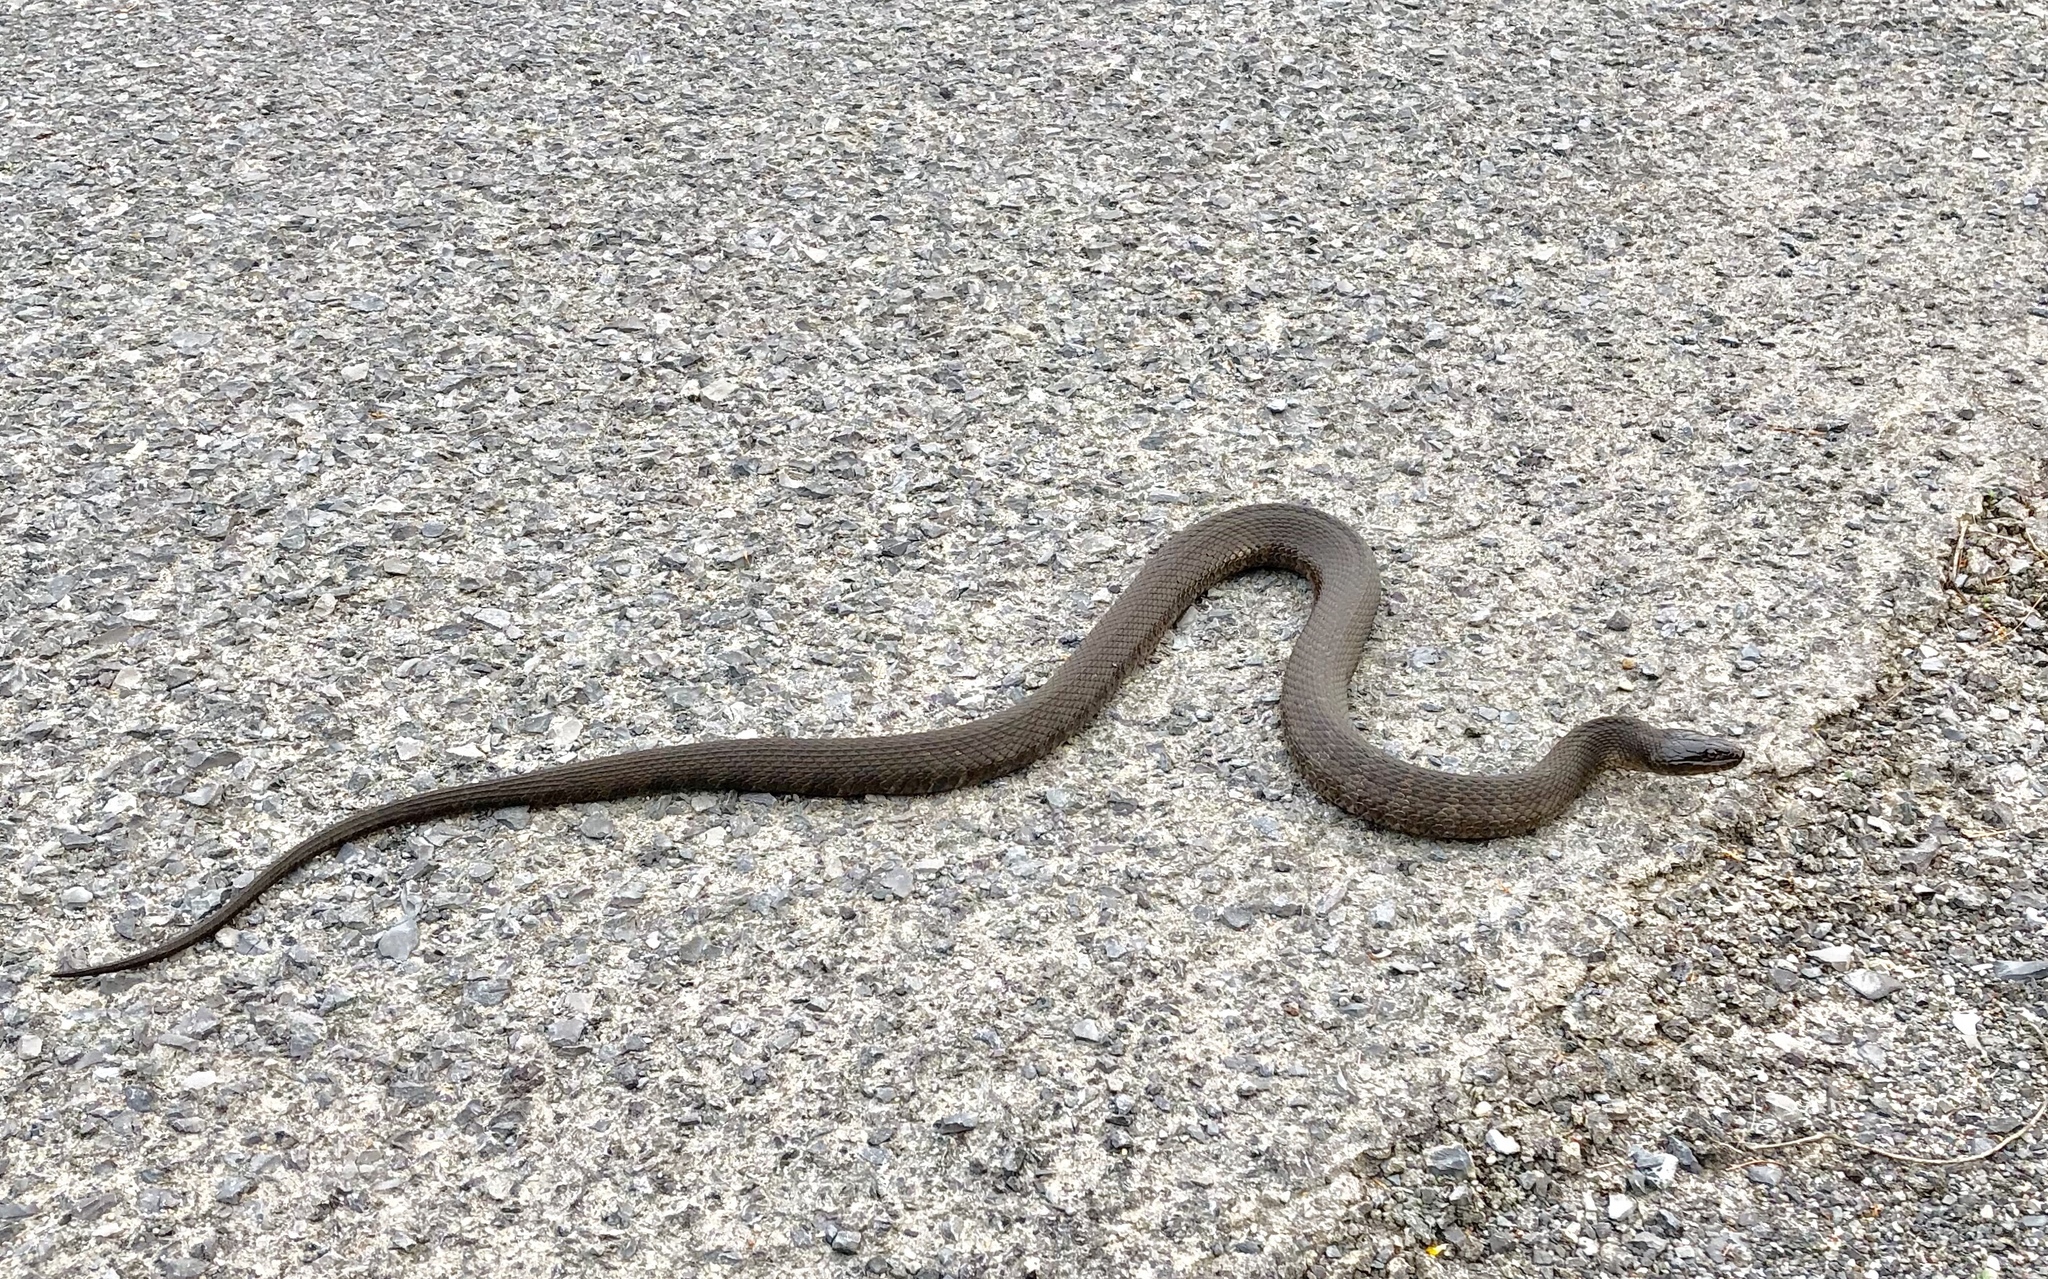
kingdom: Animalia
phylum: Chordata
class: Squamata
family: Colubridae
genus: Nerodia
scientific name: Nerodia sipedon
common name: Northern water snake
